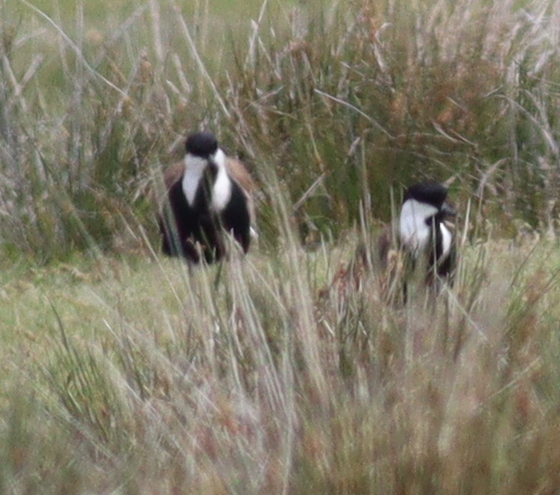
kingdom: Animalia
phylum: Chordata
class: Aves
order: Charadriiformes
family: Charadriidae
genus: Vanellus
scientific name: Vanellus spinosus
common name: Spur-winged lapwing
